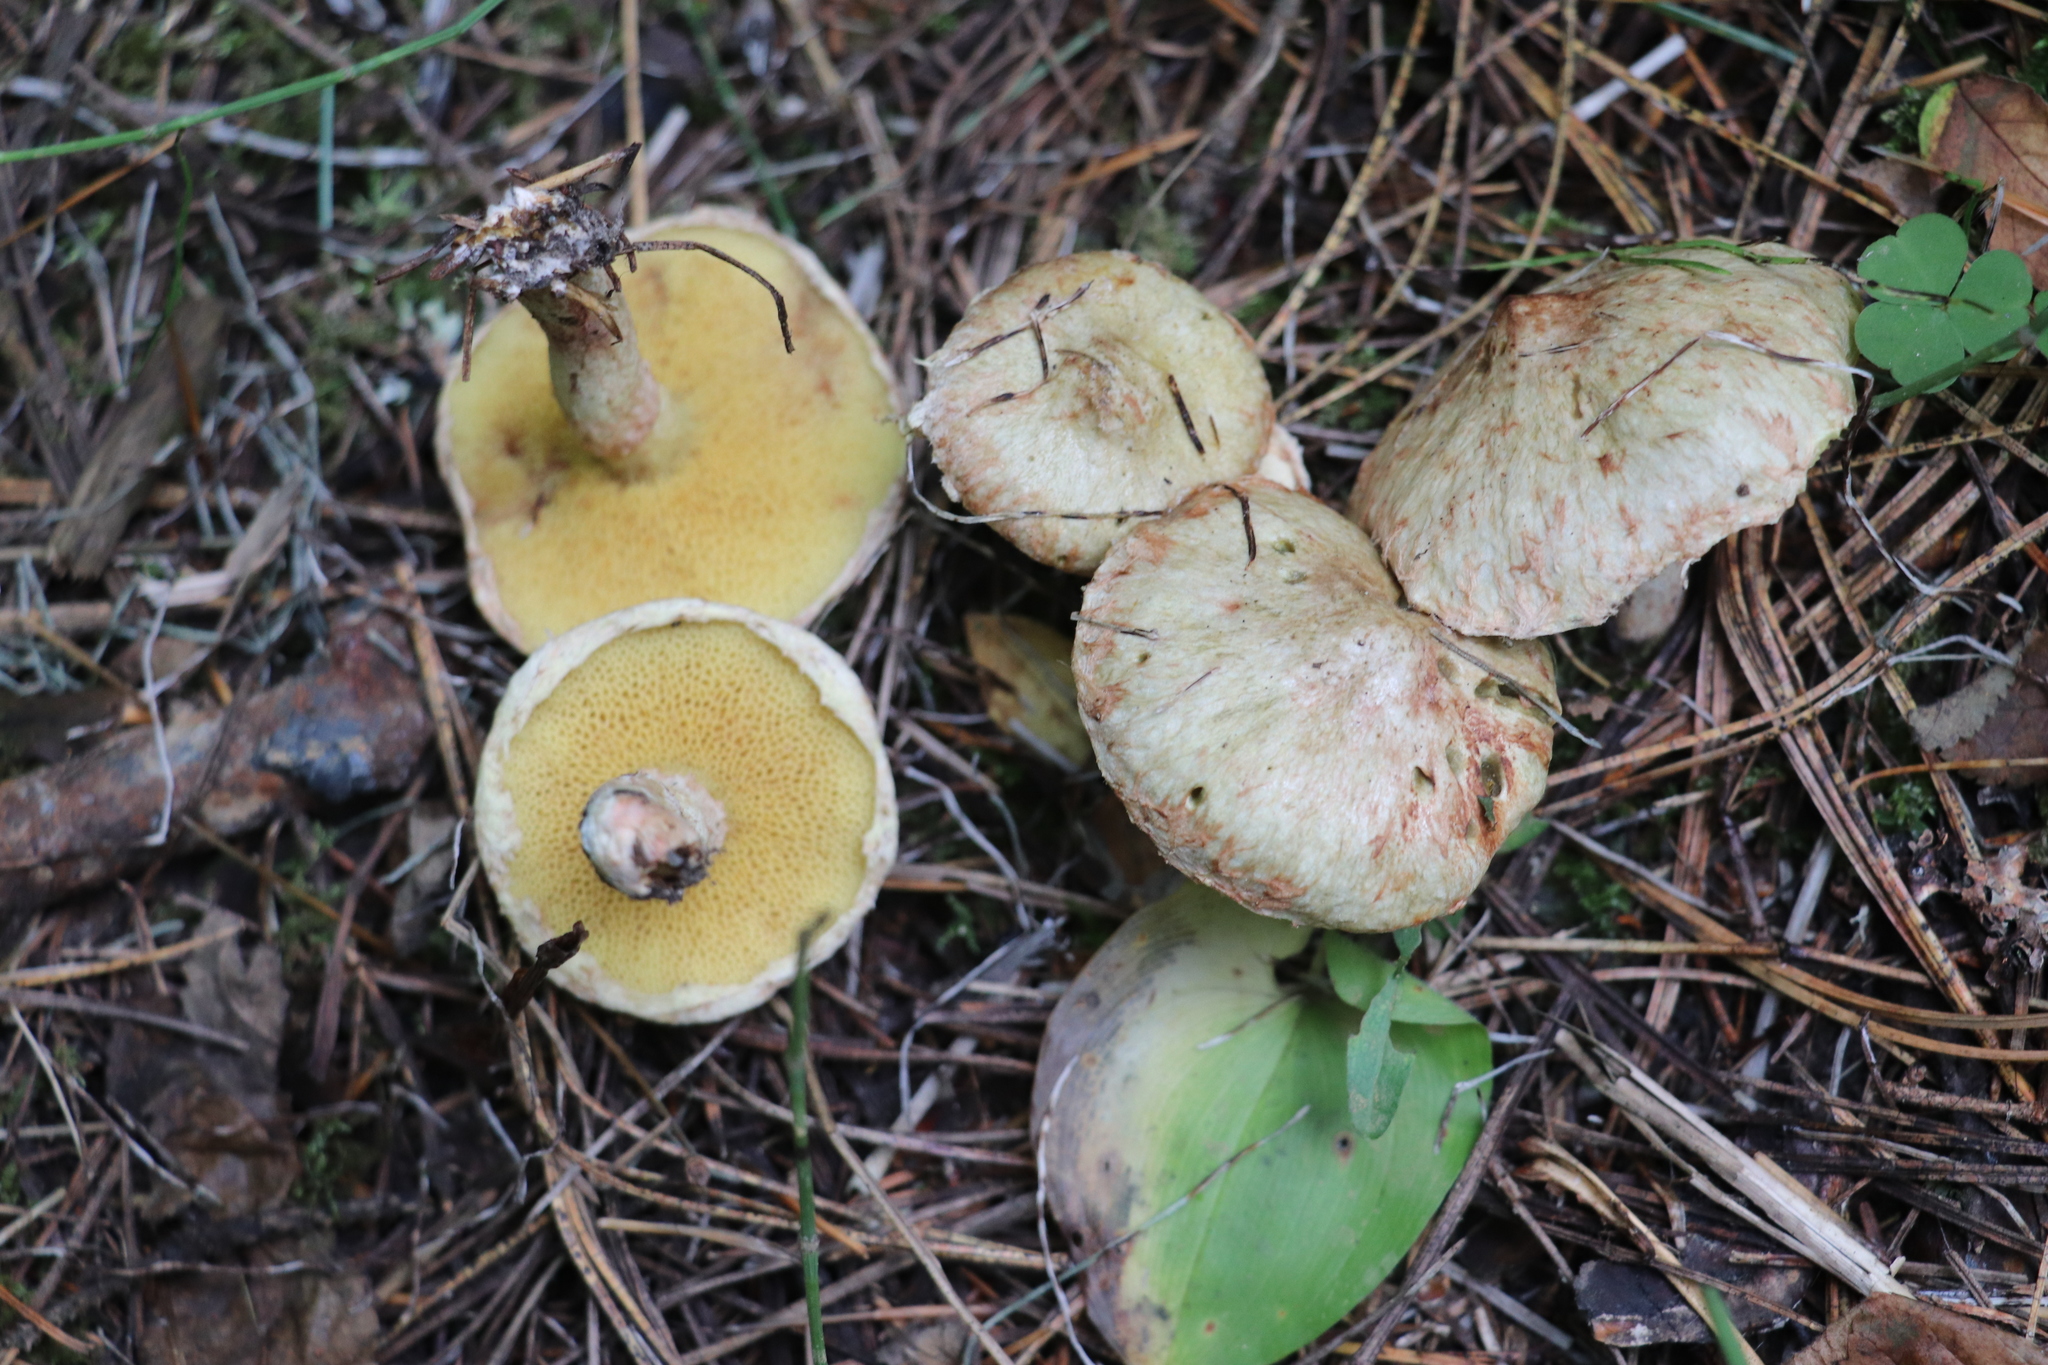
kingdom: Fungi
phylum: Basidiomycota
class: Agaricomycetes
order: Boletales
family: Suillaceae
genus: Suillus
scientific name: Suillus americanus
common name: Chicken fat mushroom
